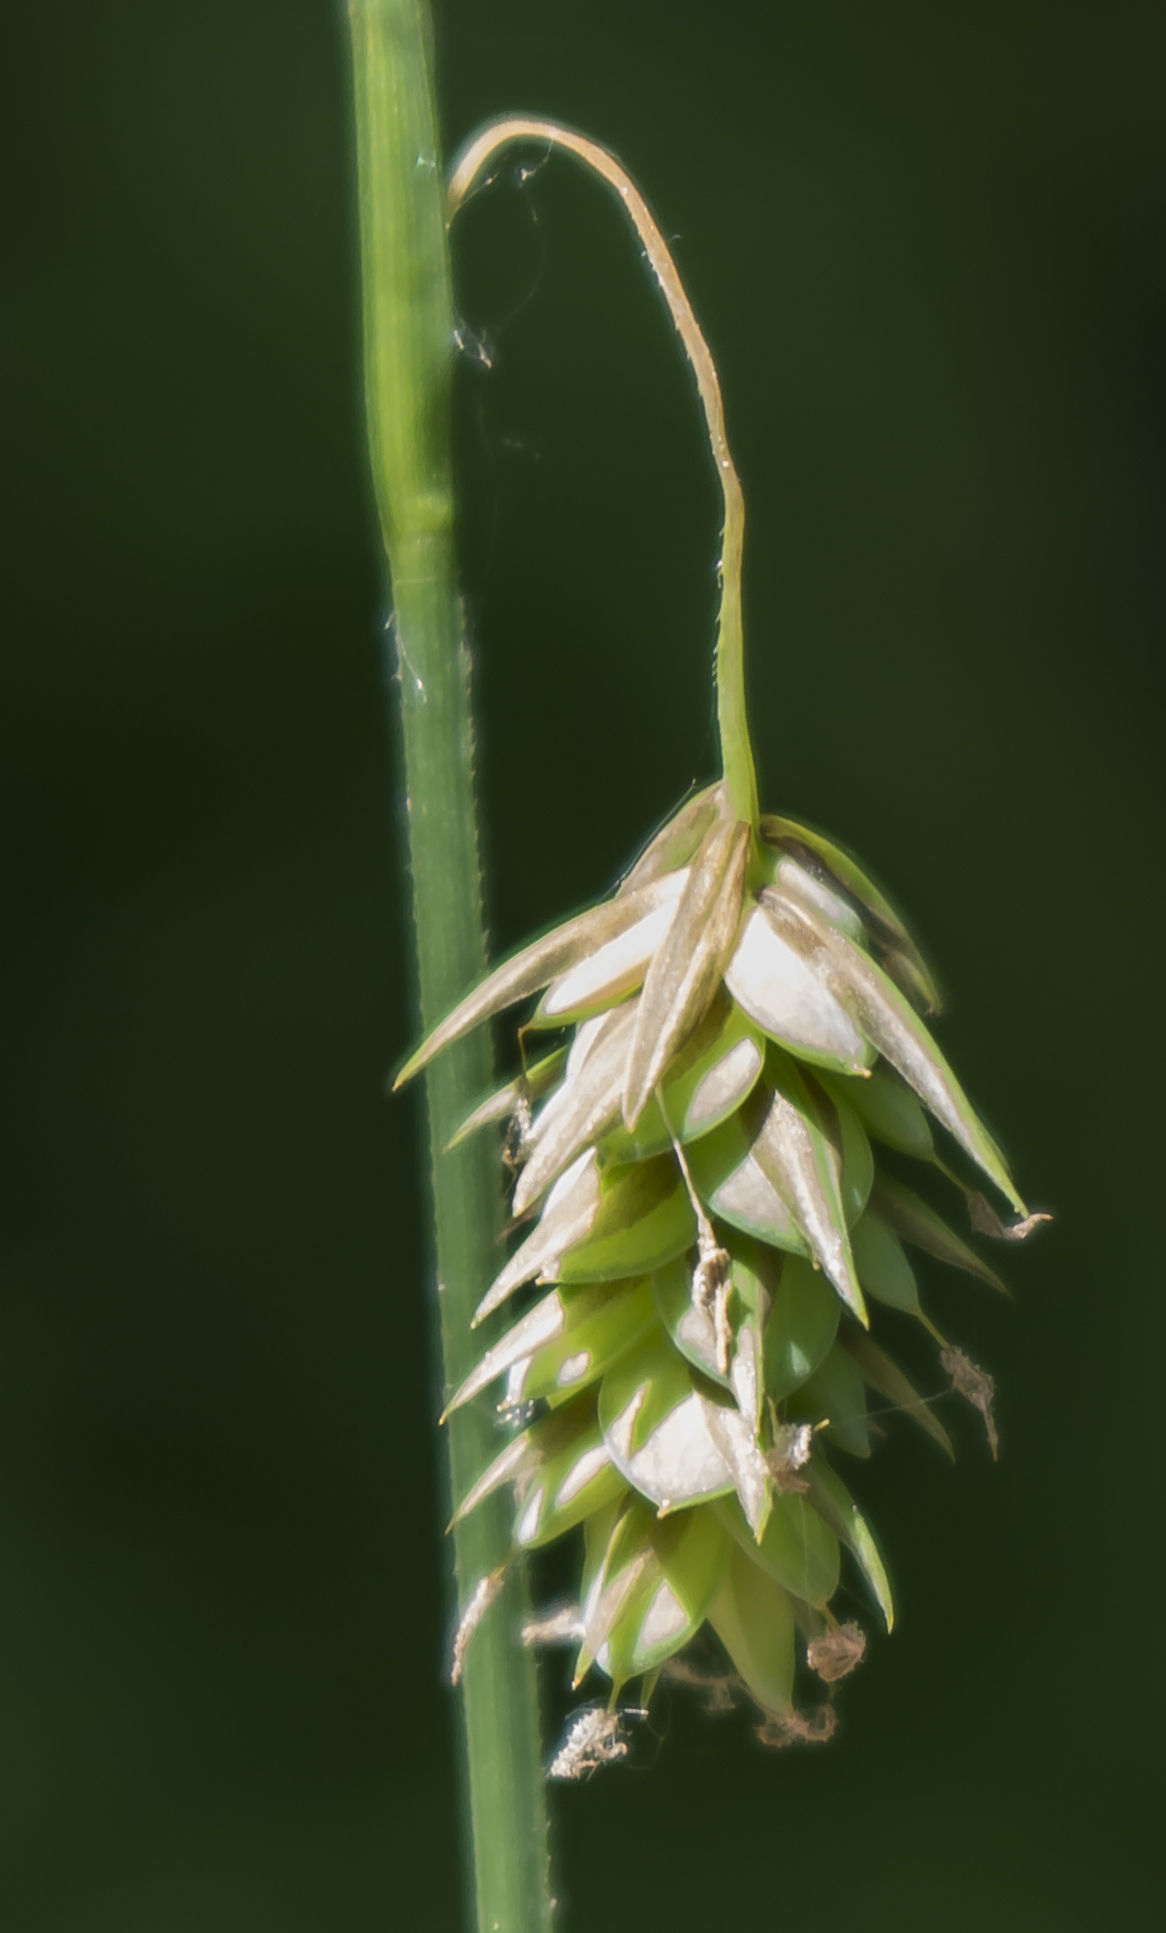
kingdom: Plantae
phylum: Tracheophyta
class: Liliopsida
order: Poales
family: Cyperaceae
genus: Carex
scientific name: Carex magellanica
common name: Bog sedge
